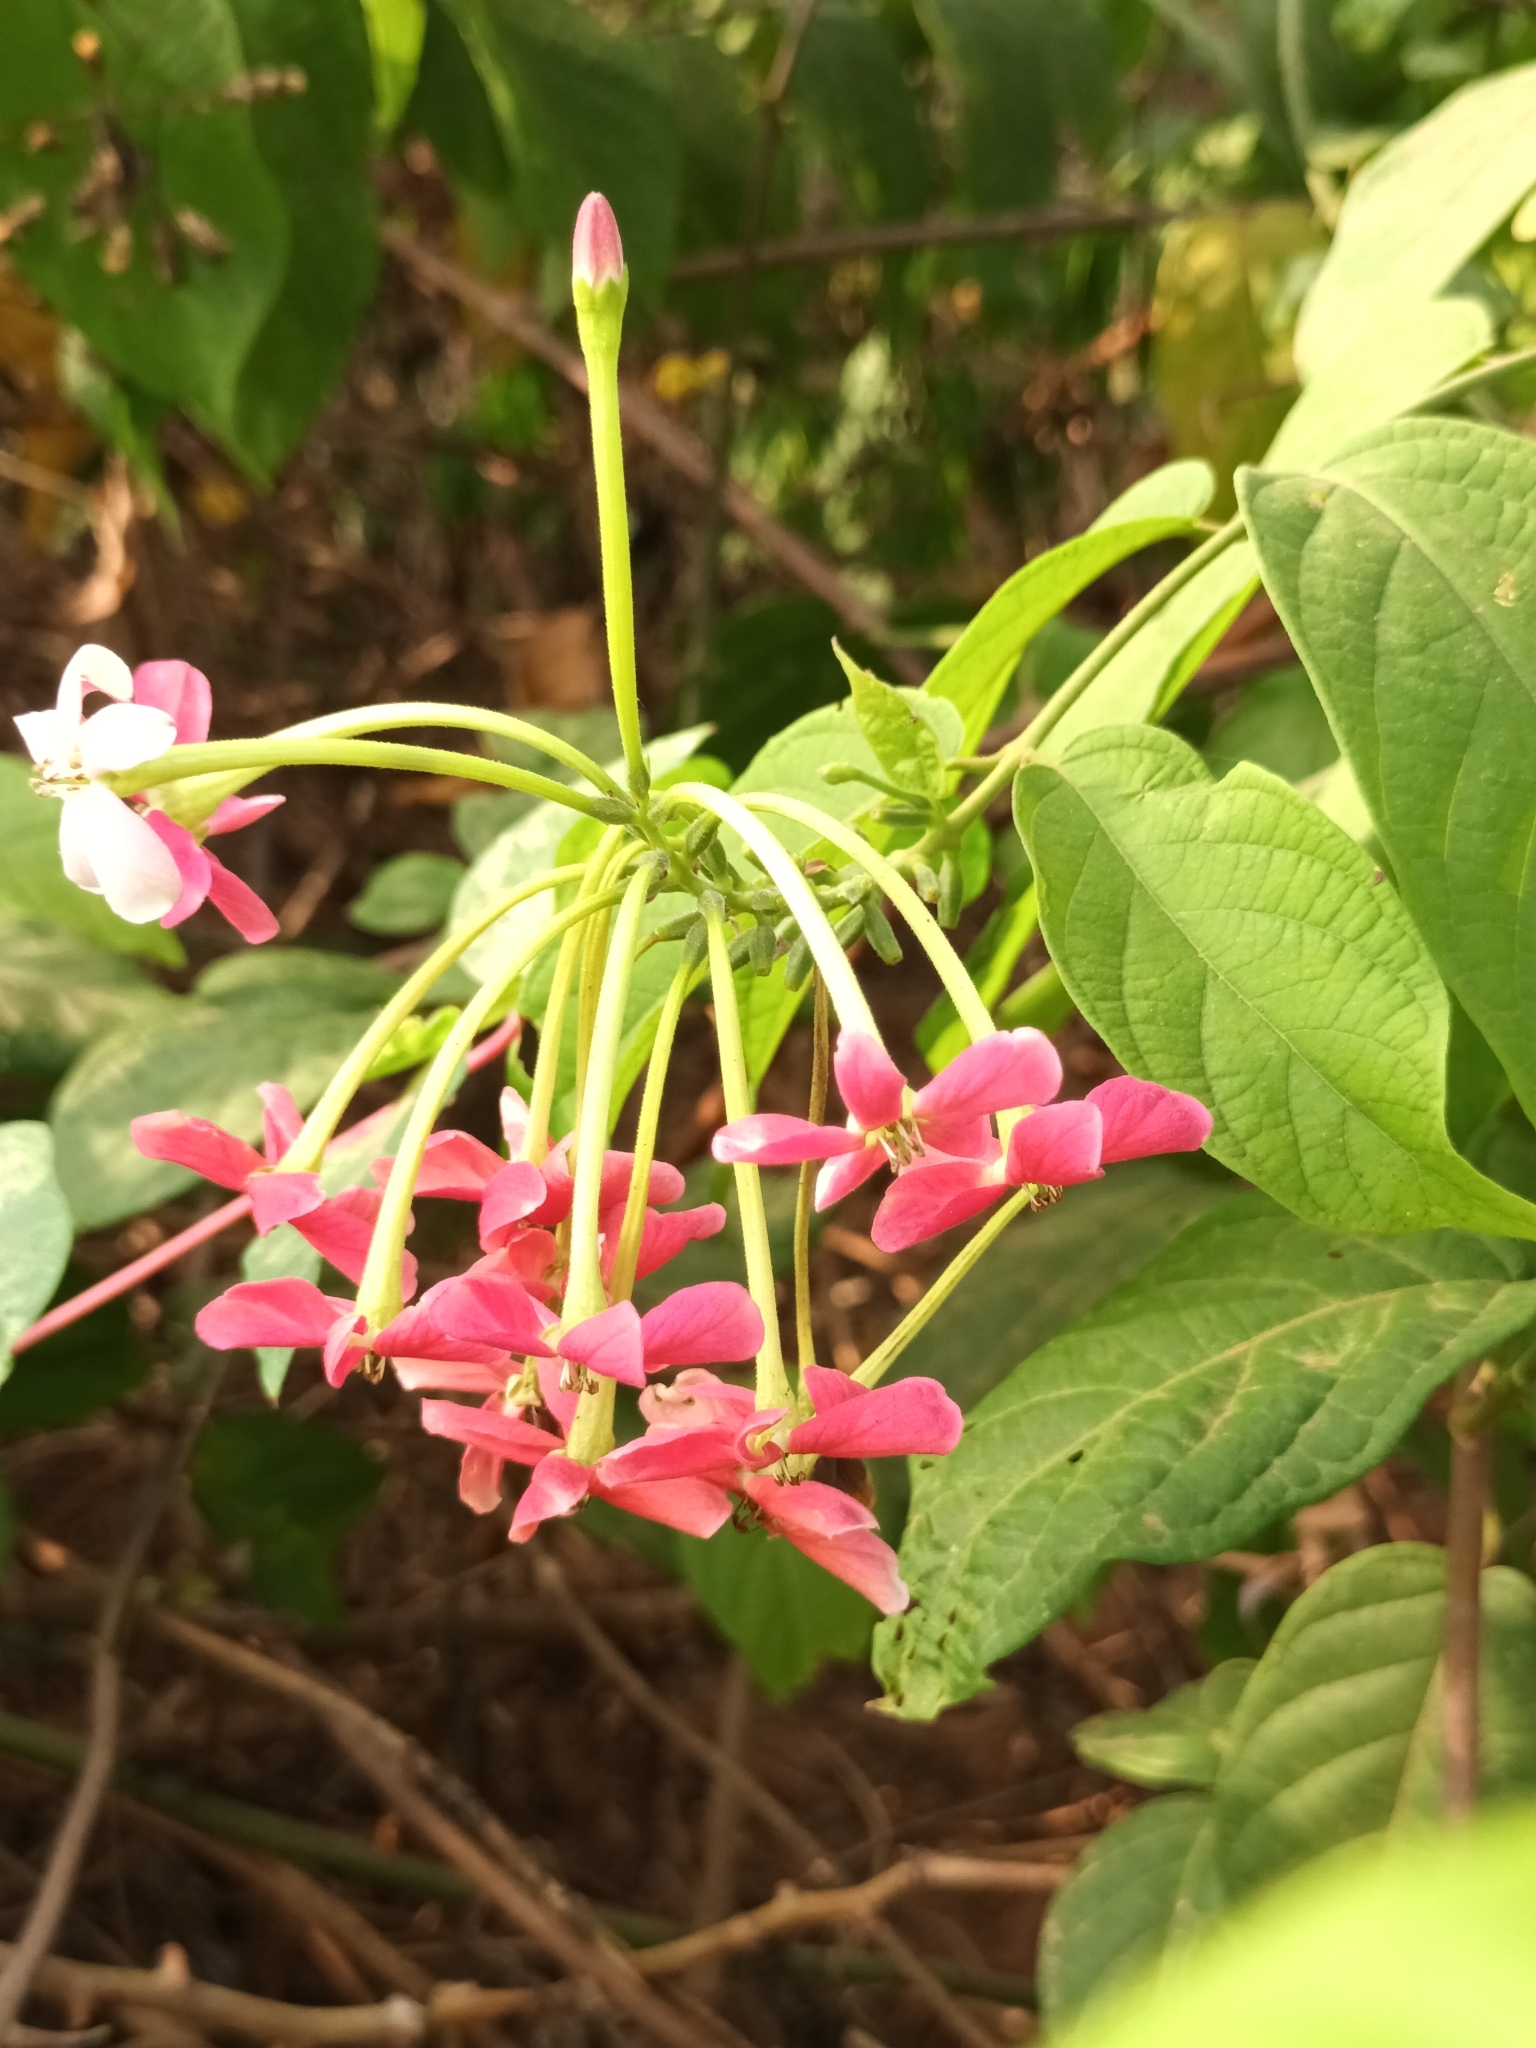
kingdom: Plantae
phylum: Tracheophyta
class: Magnoliopsida
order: Myrtales
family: Combretaceae
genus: Combretum
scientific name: Combretum indicum
